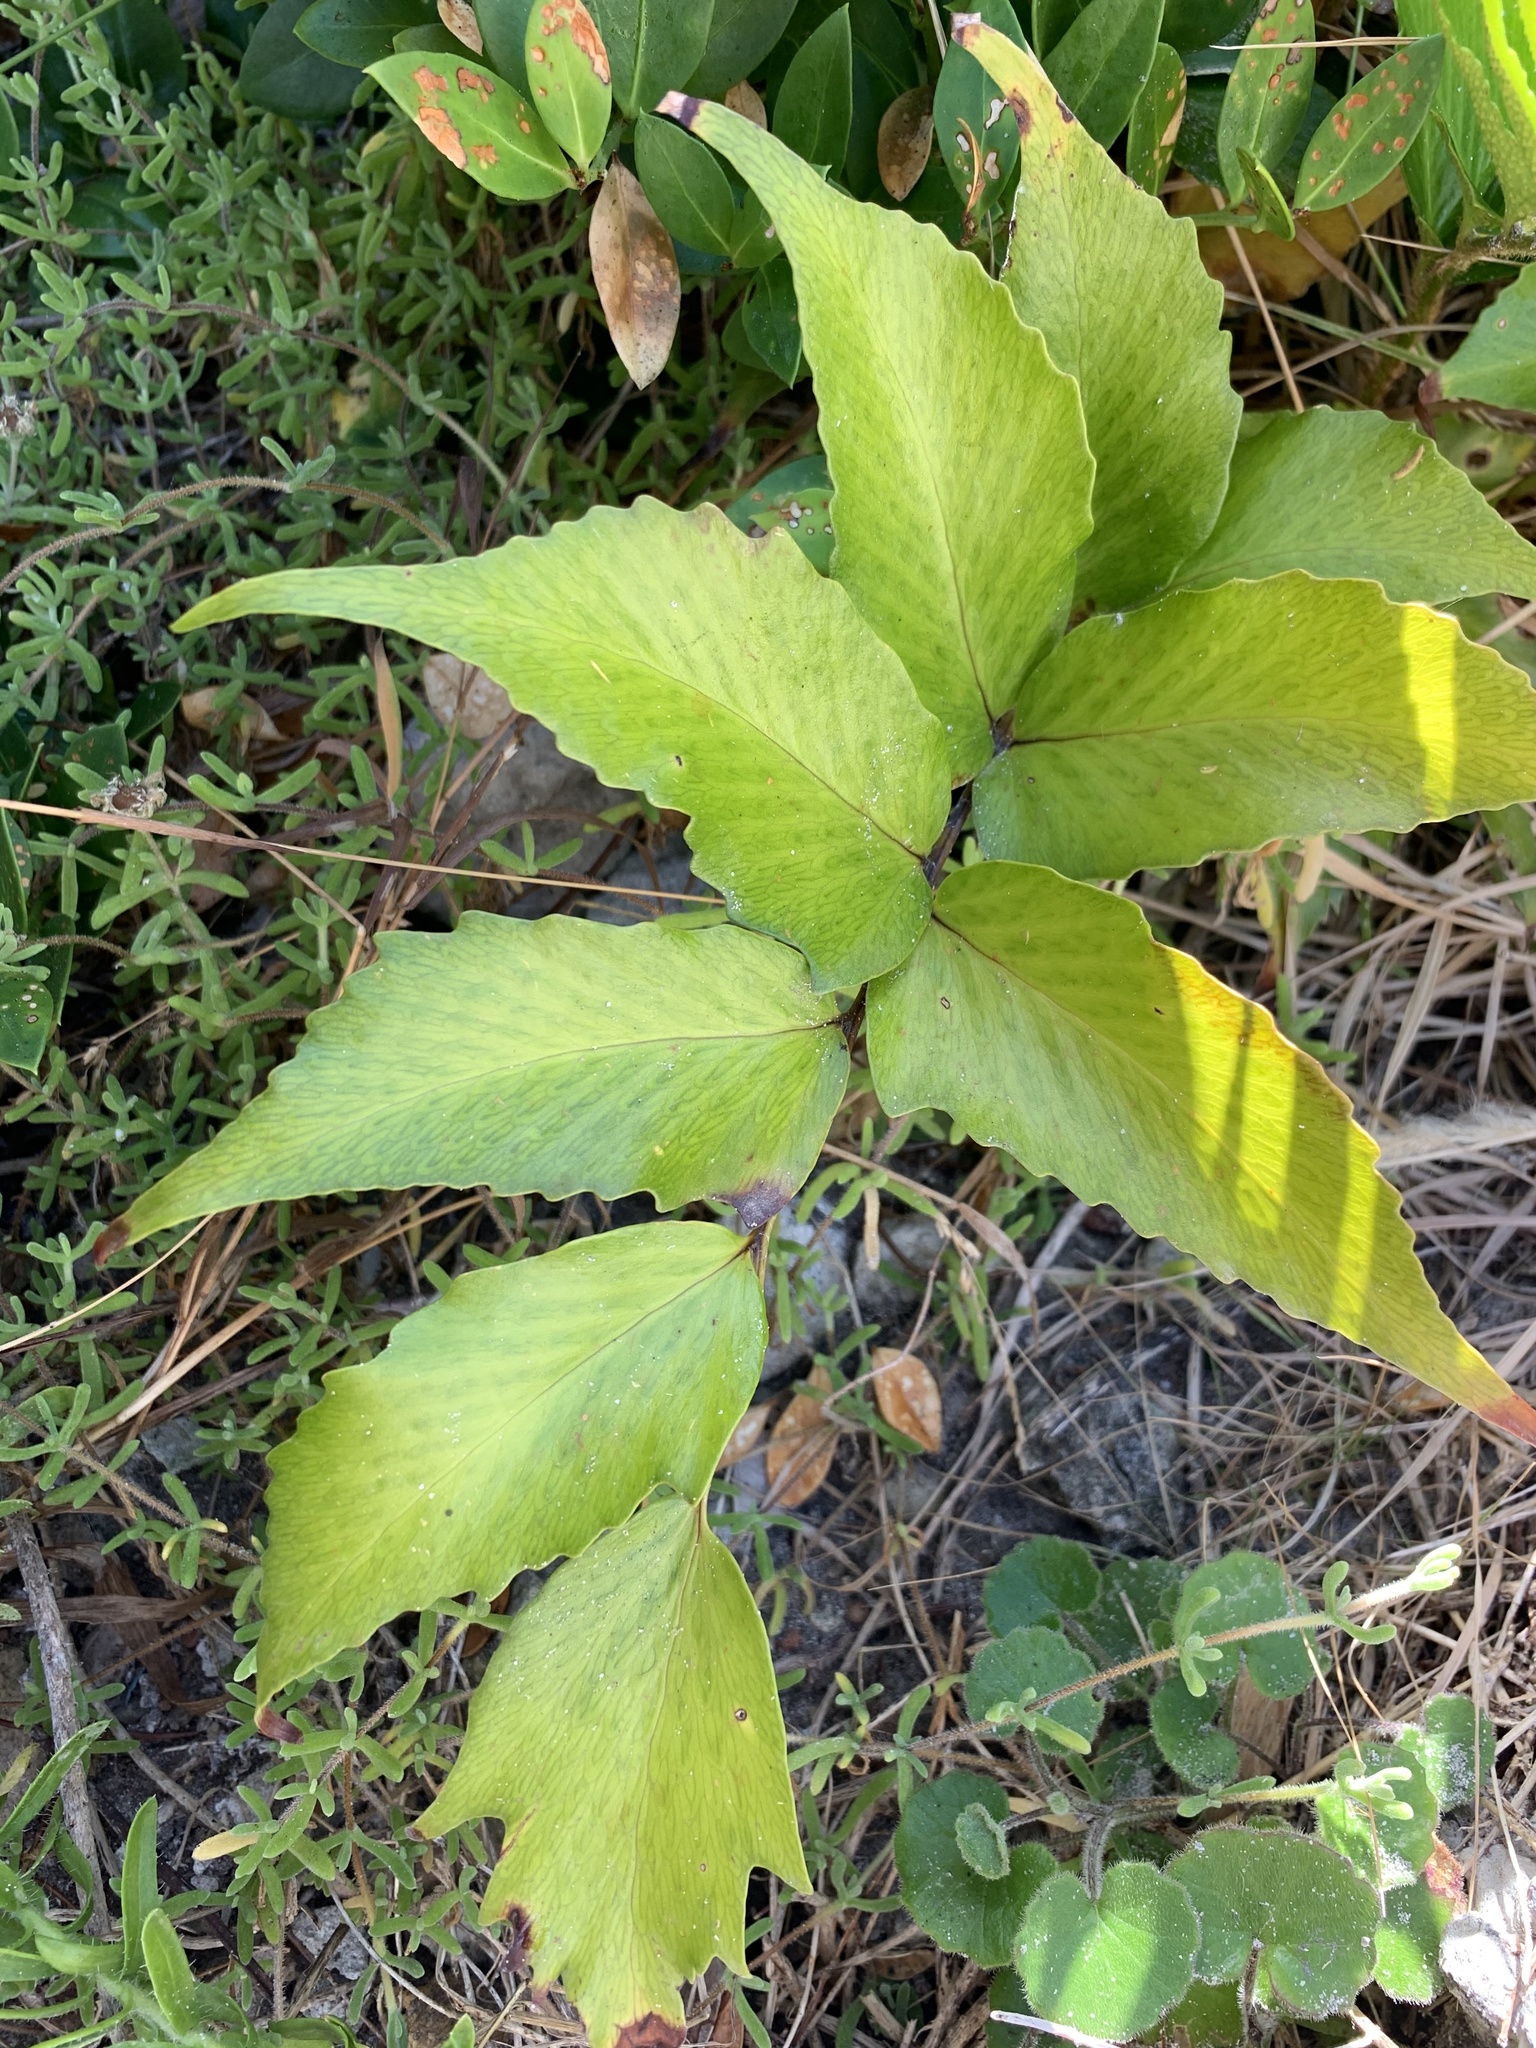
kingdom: Plantae
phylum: Tracheophyta
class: Polypodiopsida
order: Polypodiales
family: Dryopteridaceae
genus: Cyrtomium
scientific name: Cyrtomium falcatum
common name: House holly-fern
